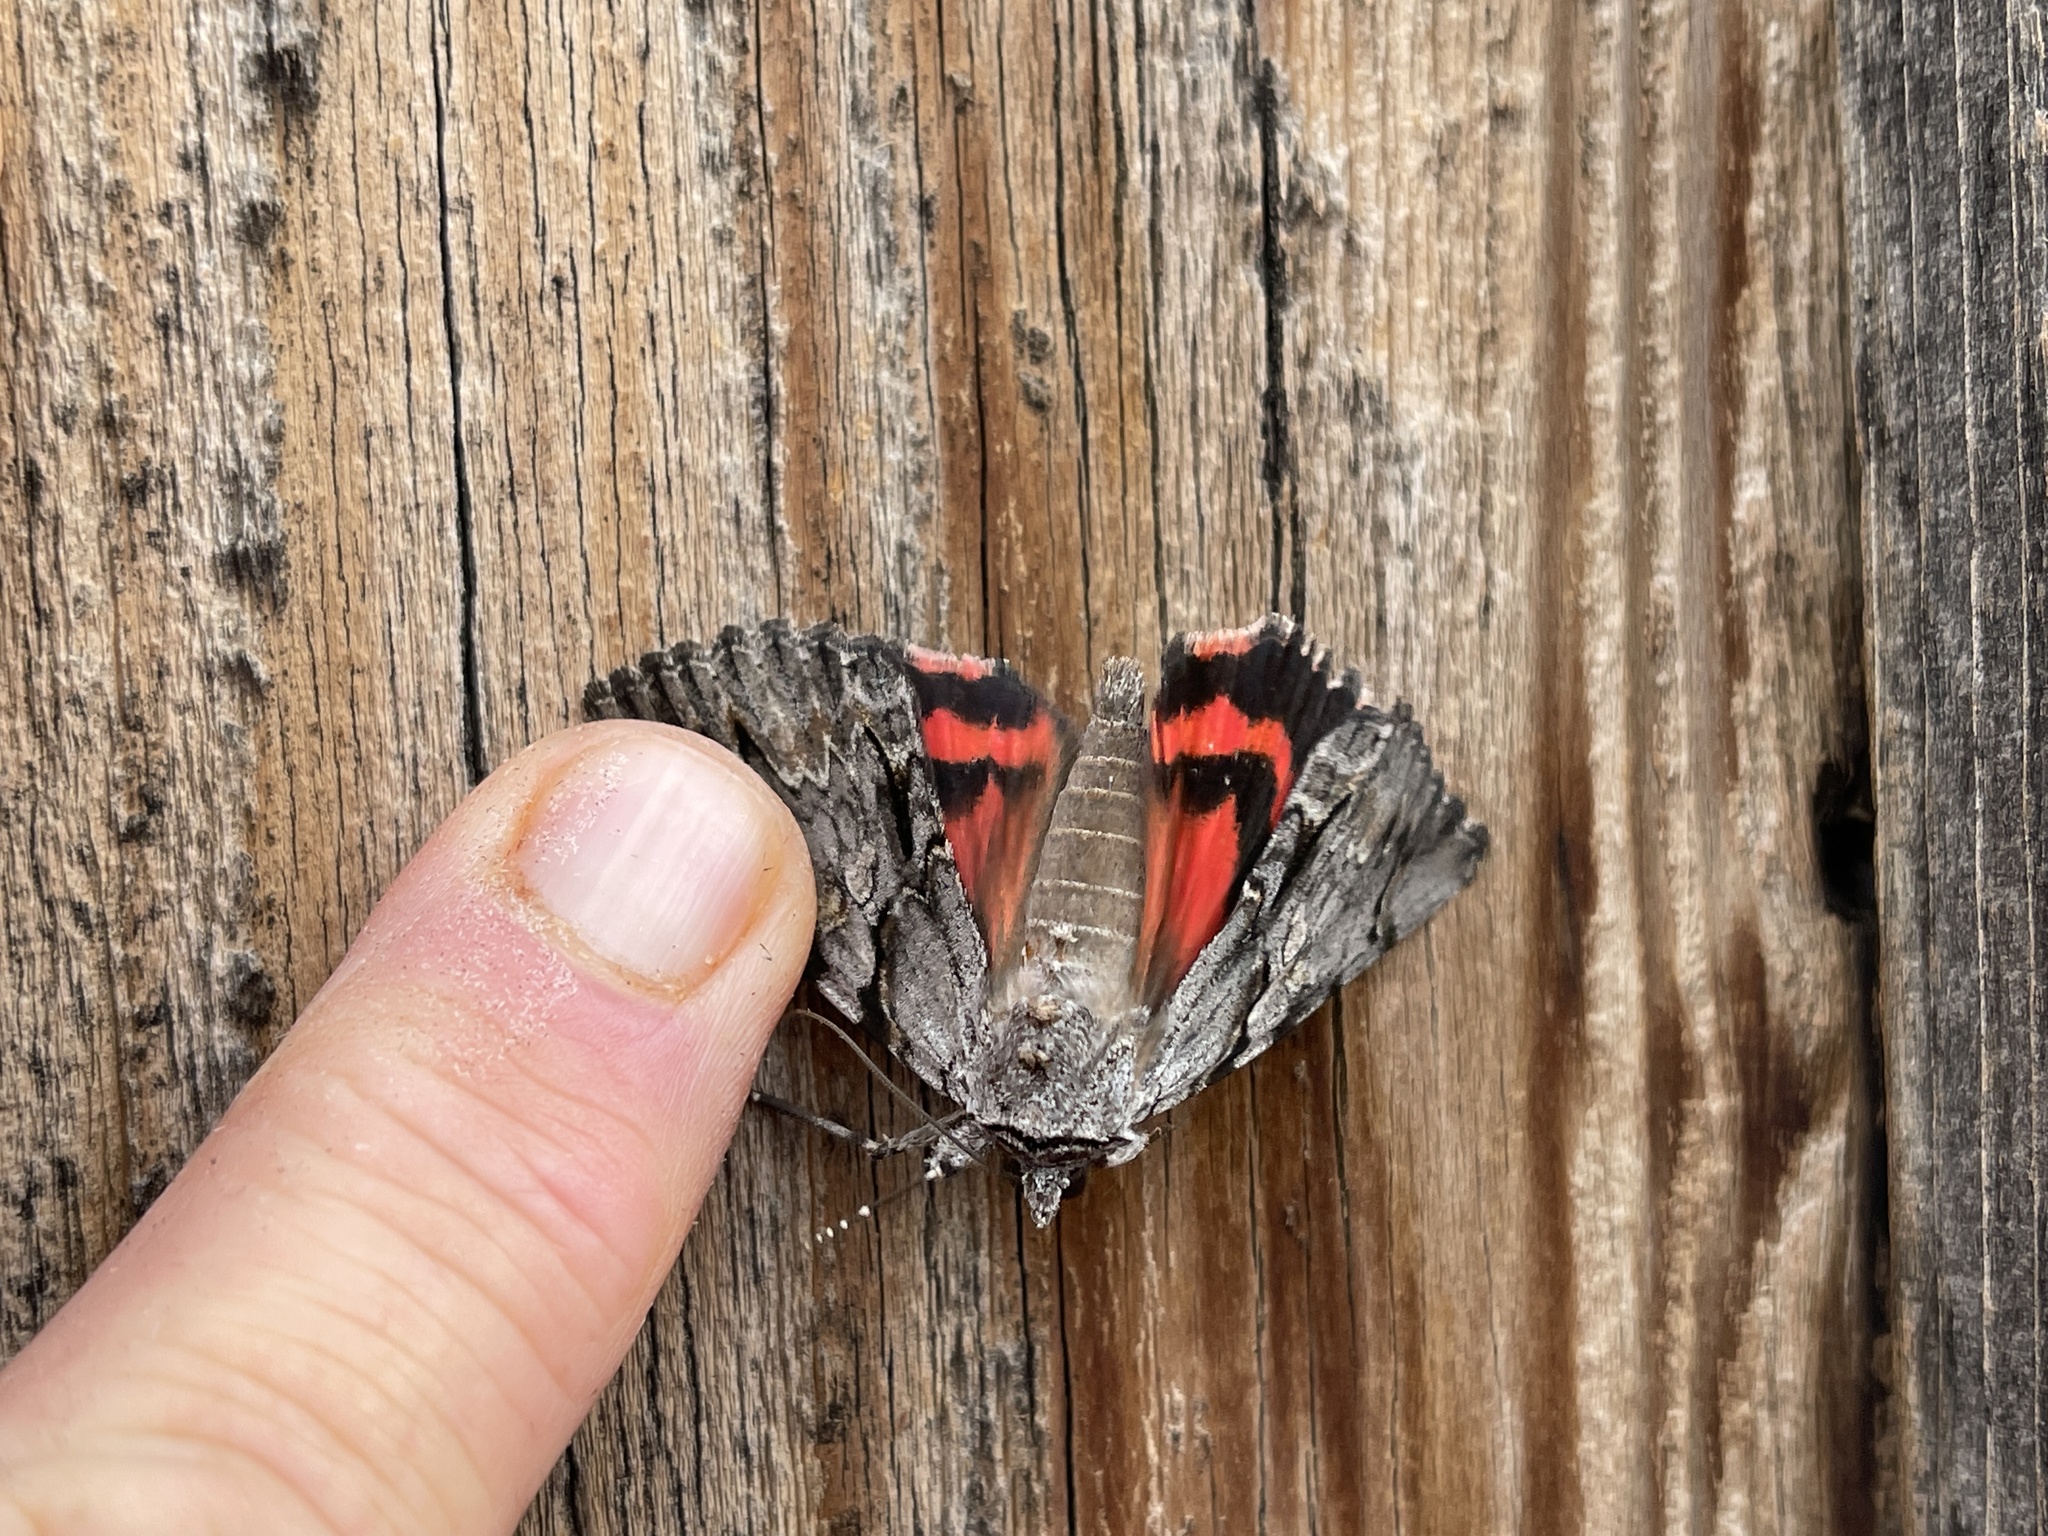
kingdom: Animalia
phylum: Arthropoda
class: Insecta
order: Lepidoptera
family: Erebidae
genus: Catocala
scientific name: Catocala violenta
